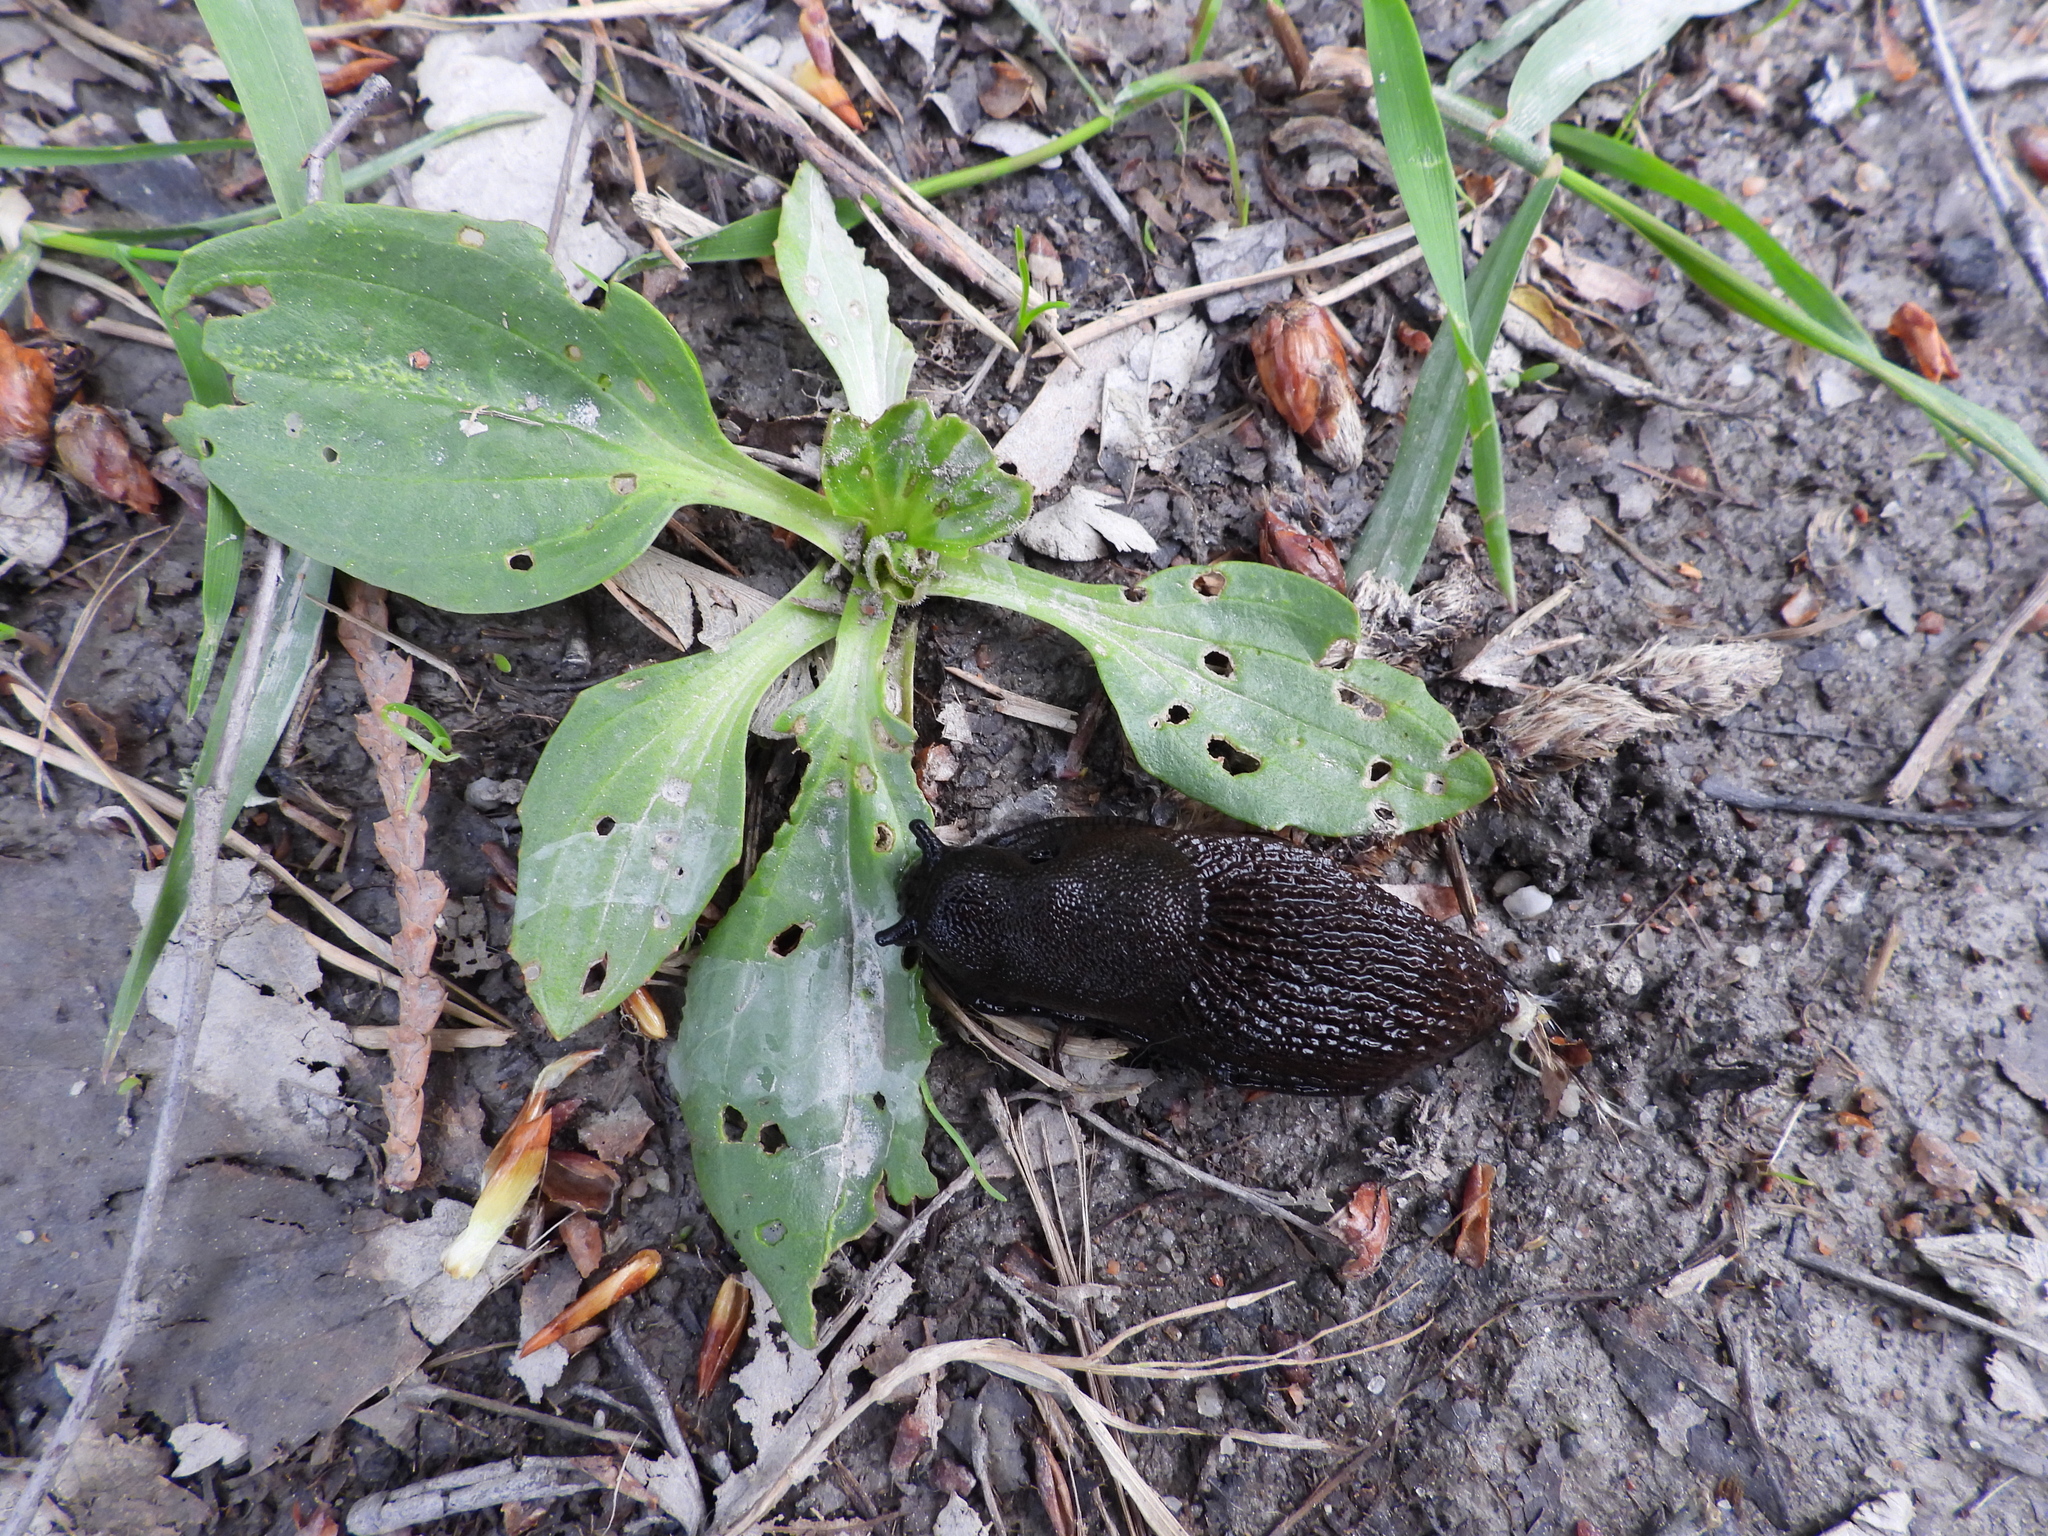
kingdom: Animalia
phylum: Mollusca
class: Gastropoda
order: Stylommatophora
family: Arionidae
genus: Arion
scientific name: Arion vulgaris
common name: Lusitanian slug
